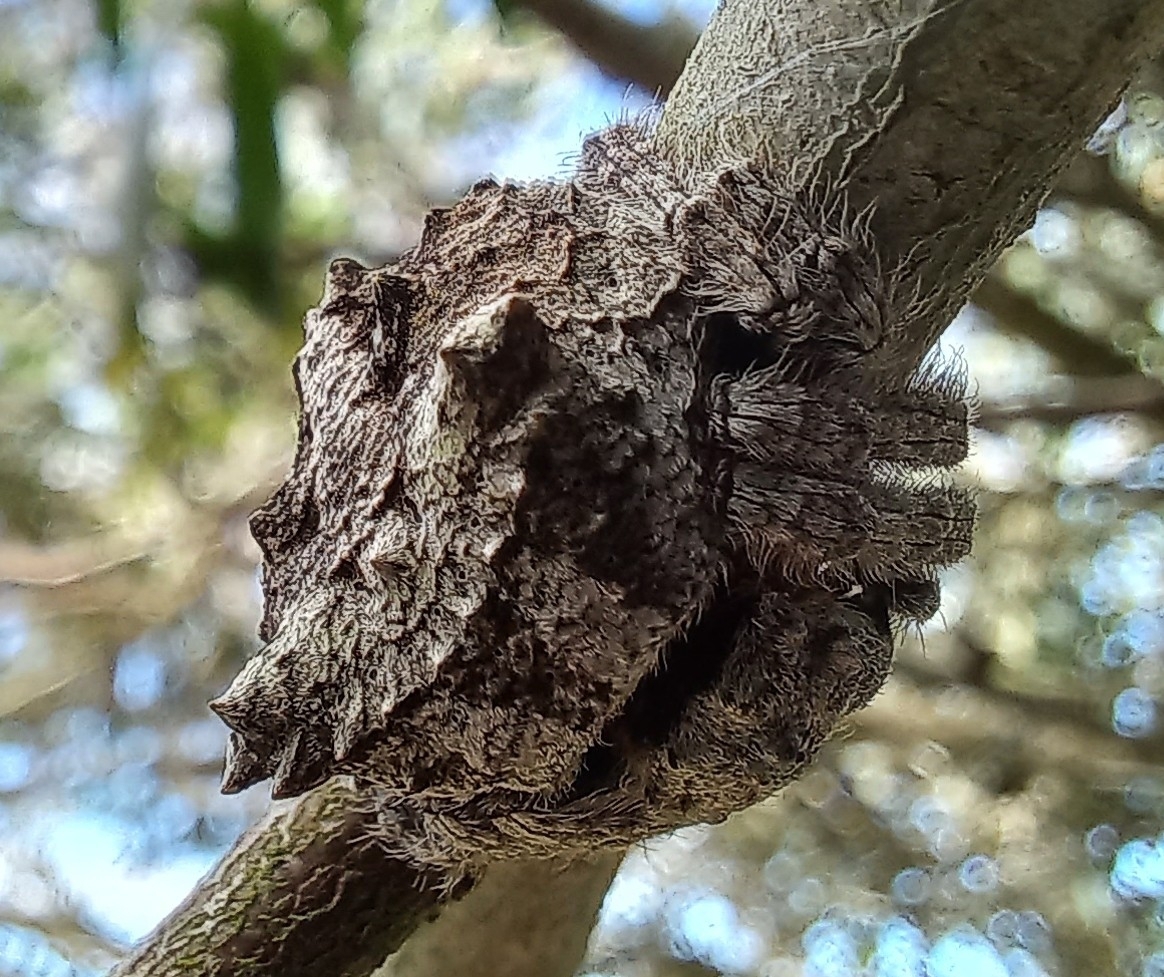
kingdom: Animalia
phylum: Arthropoda
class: Arachnida
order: Araneae
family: Araneidae
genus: Caerostris
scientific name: Caerostris sexcuspidata
